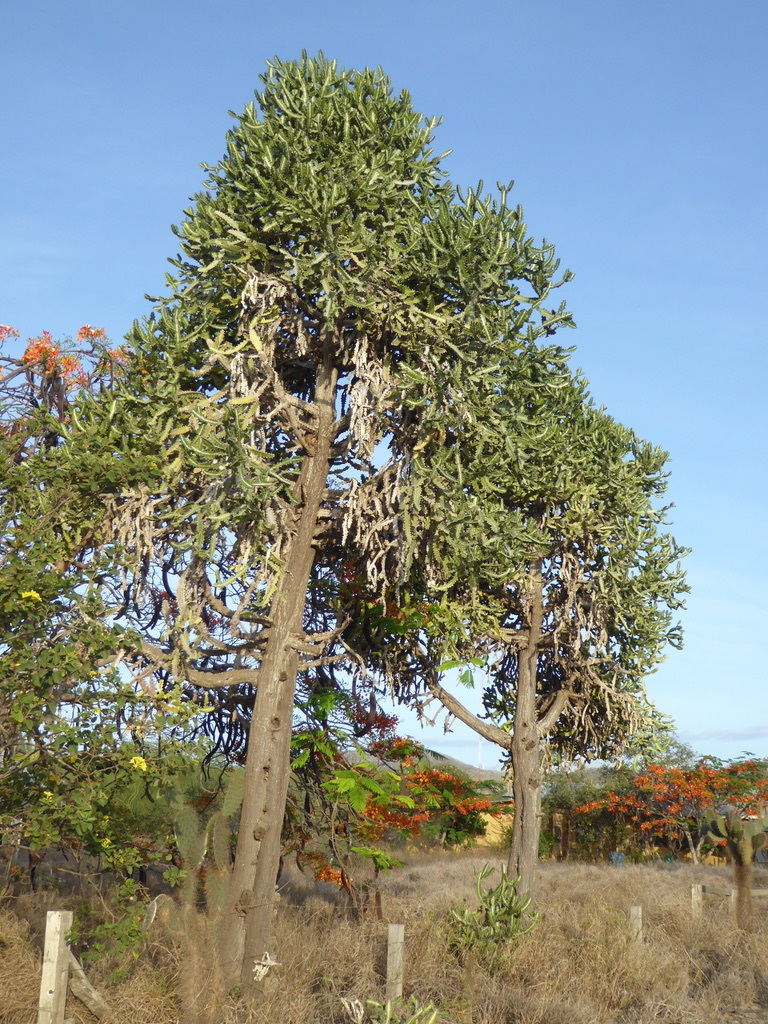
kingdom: Plantae
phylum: Tracheophyta
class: Magnoliopsida
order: Malpighiales
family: Euphorbiaceae
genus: Euphorbia
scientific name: Euphorbia lactea
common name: Mottled spurge
